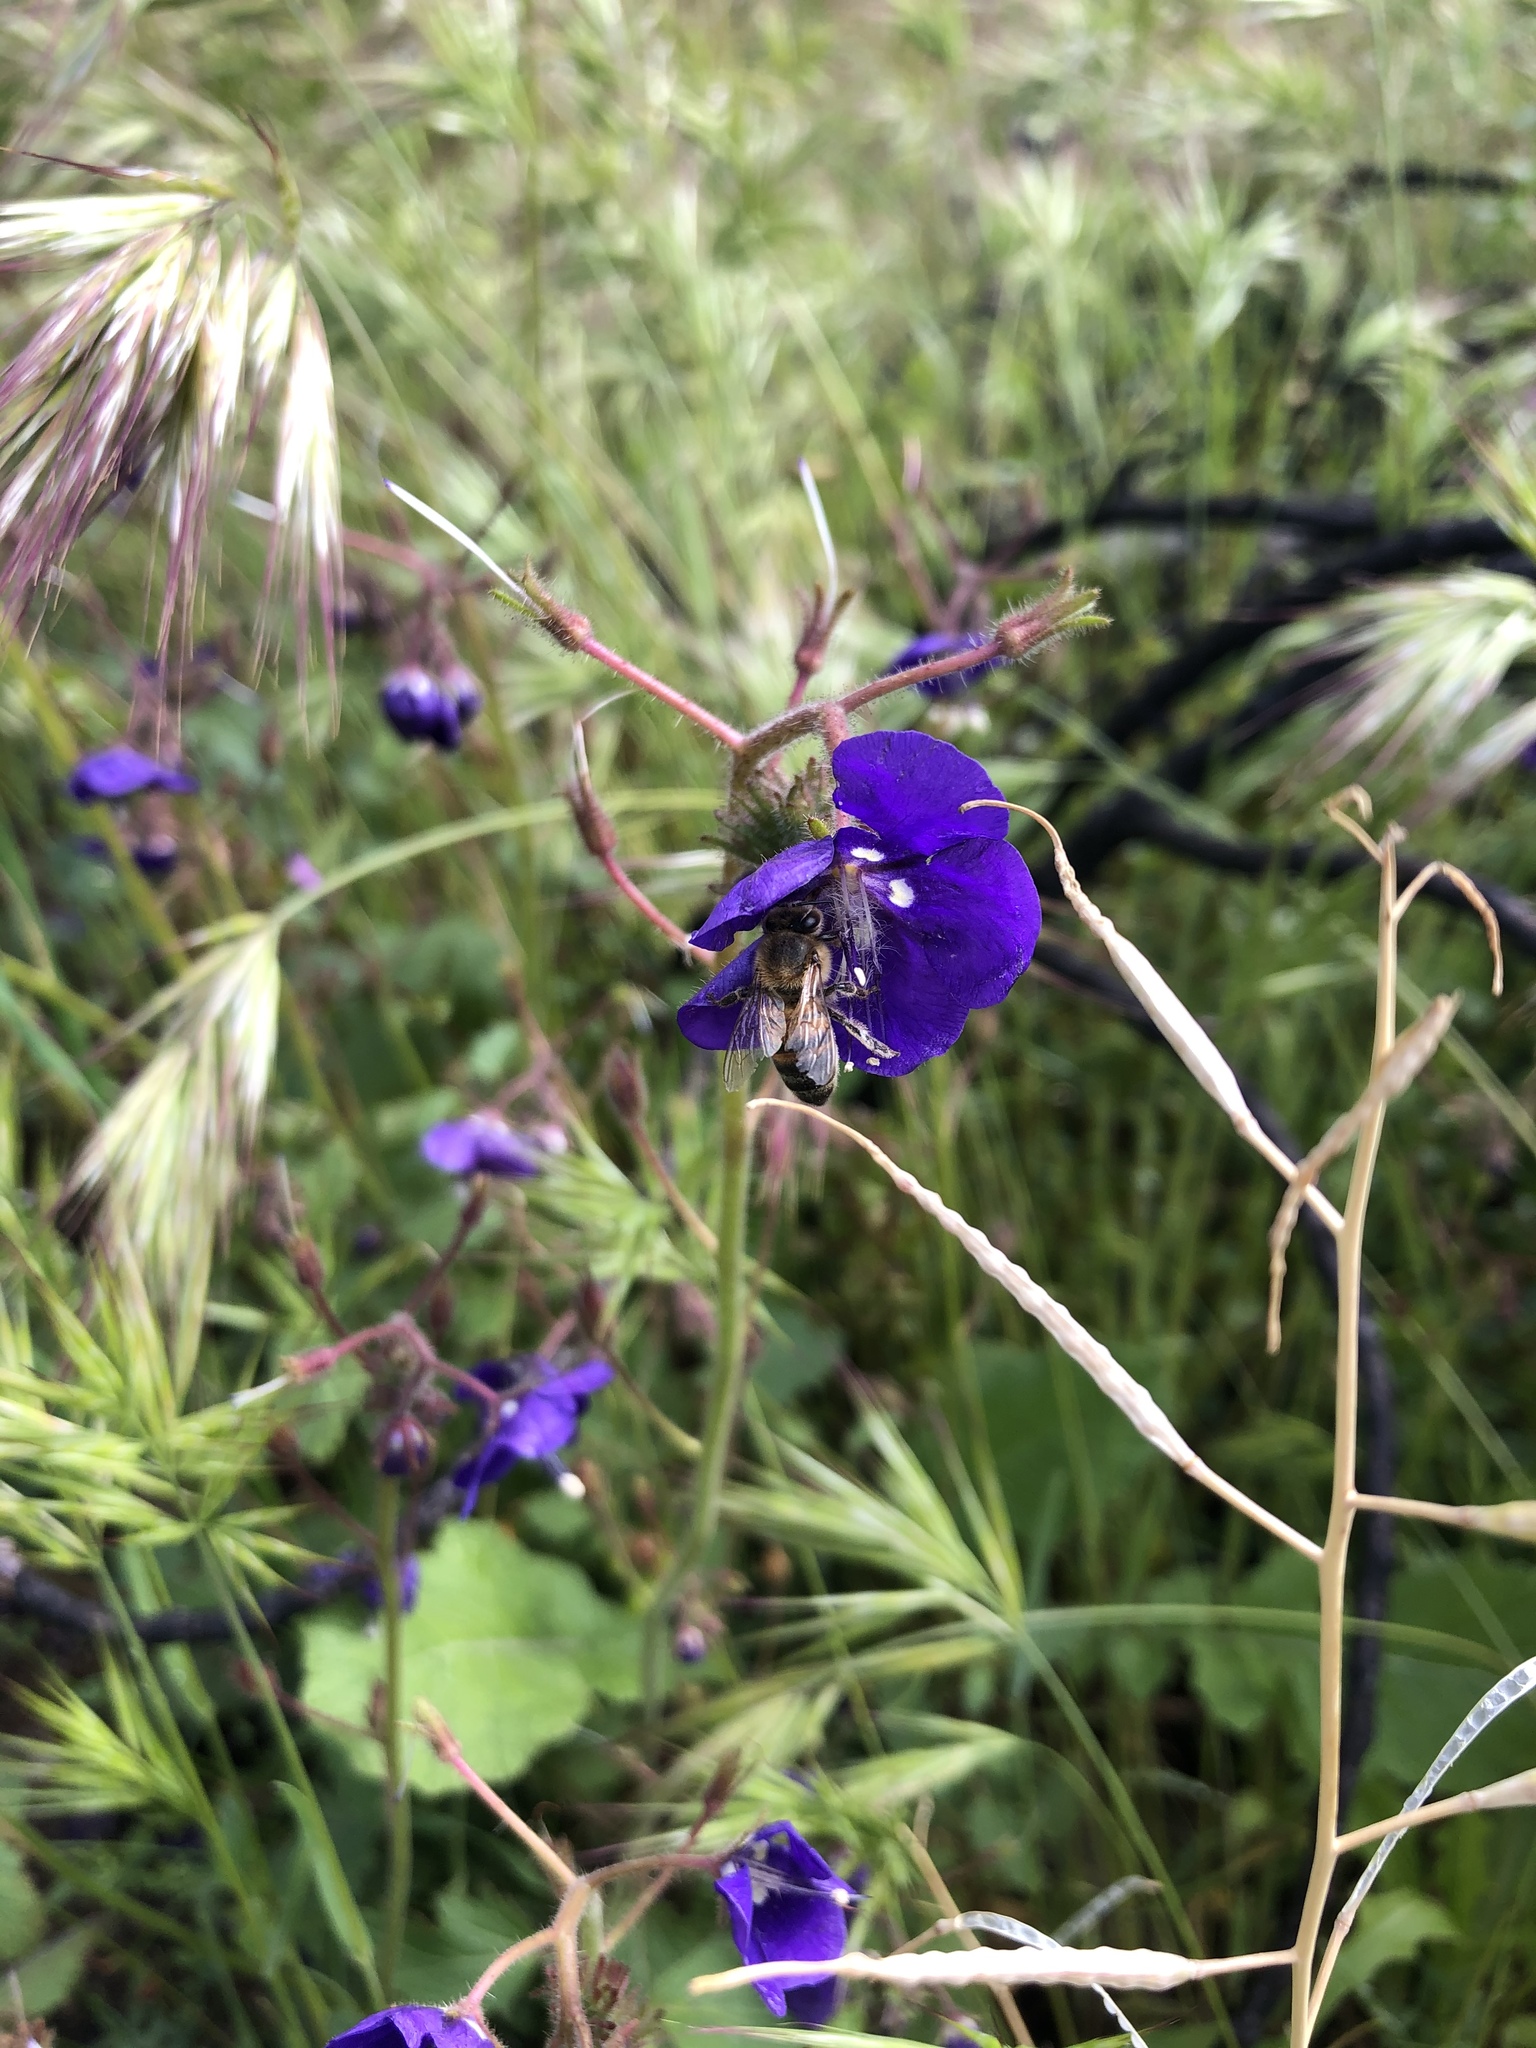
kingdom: Plantae
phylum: Tracheophyta
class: Magnoliopsida
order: Boraginales
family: Hydrophyllaceae
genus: Phacelia
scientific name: Phacelia parryi
